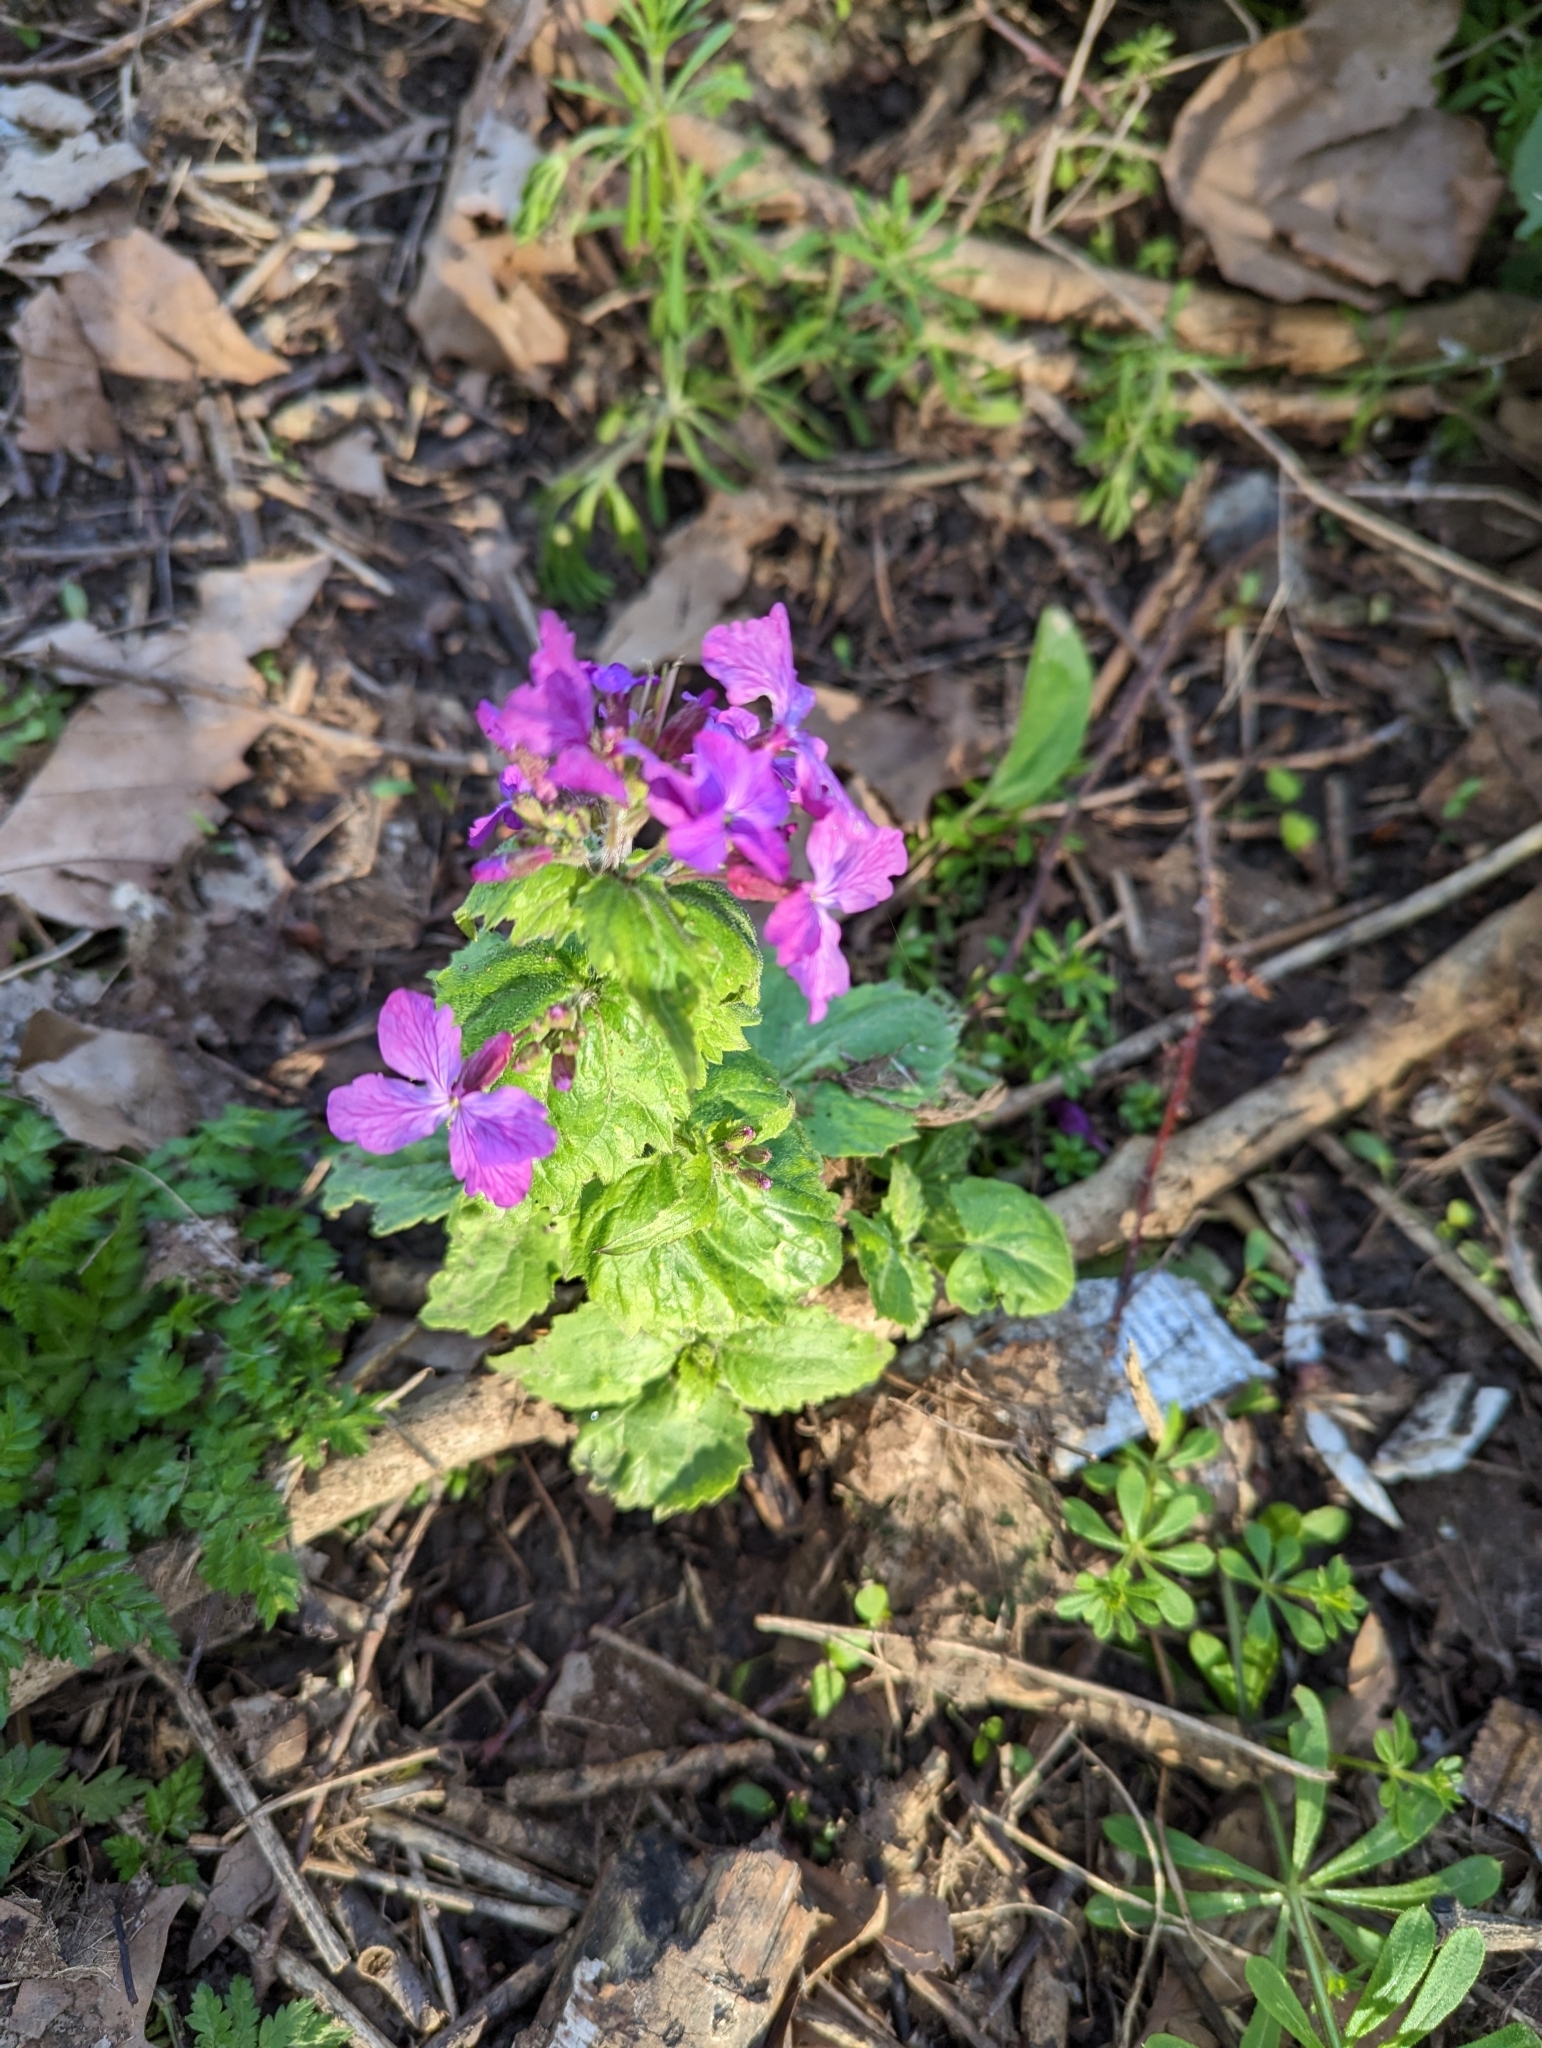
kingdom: Plantae
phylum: Tracheophyta
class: Magnoliopsida
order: Brassicales
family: Brassicaceae
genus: Lunaria
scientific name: Lunaria annua
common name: Honesty
